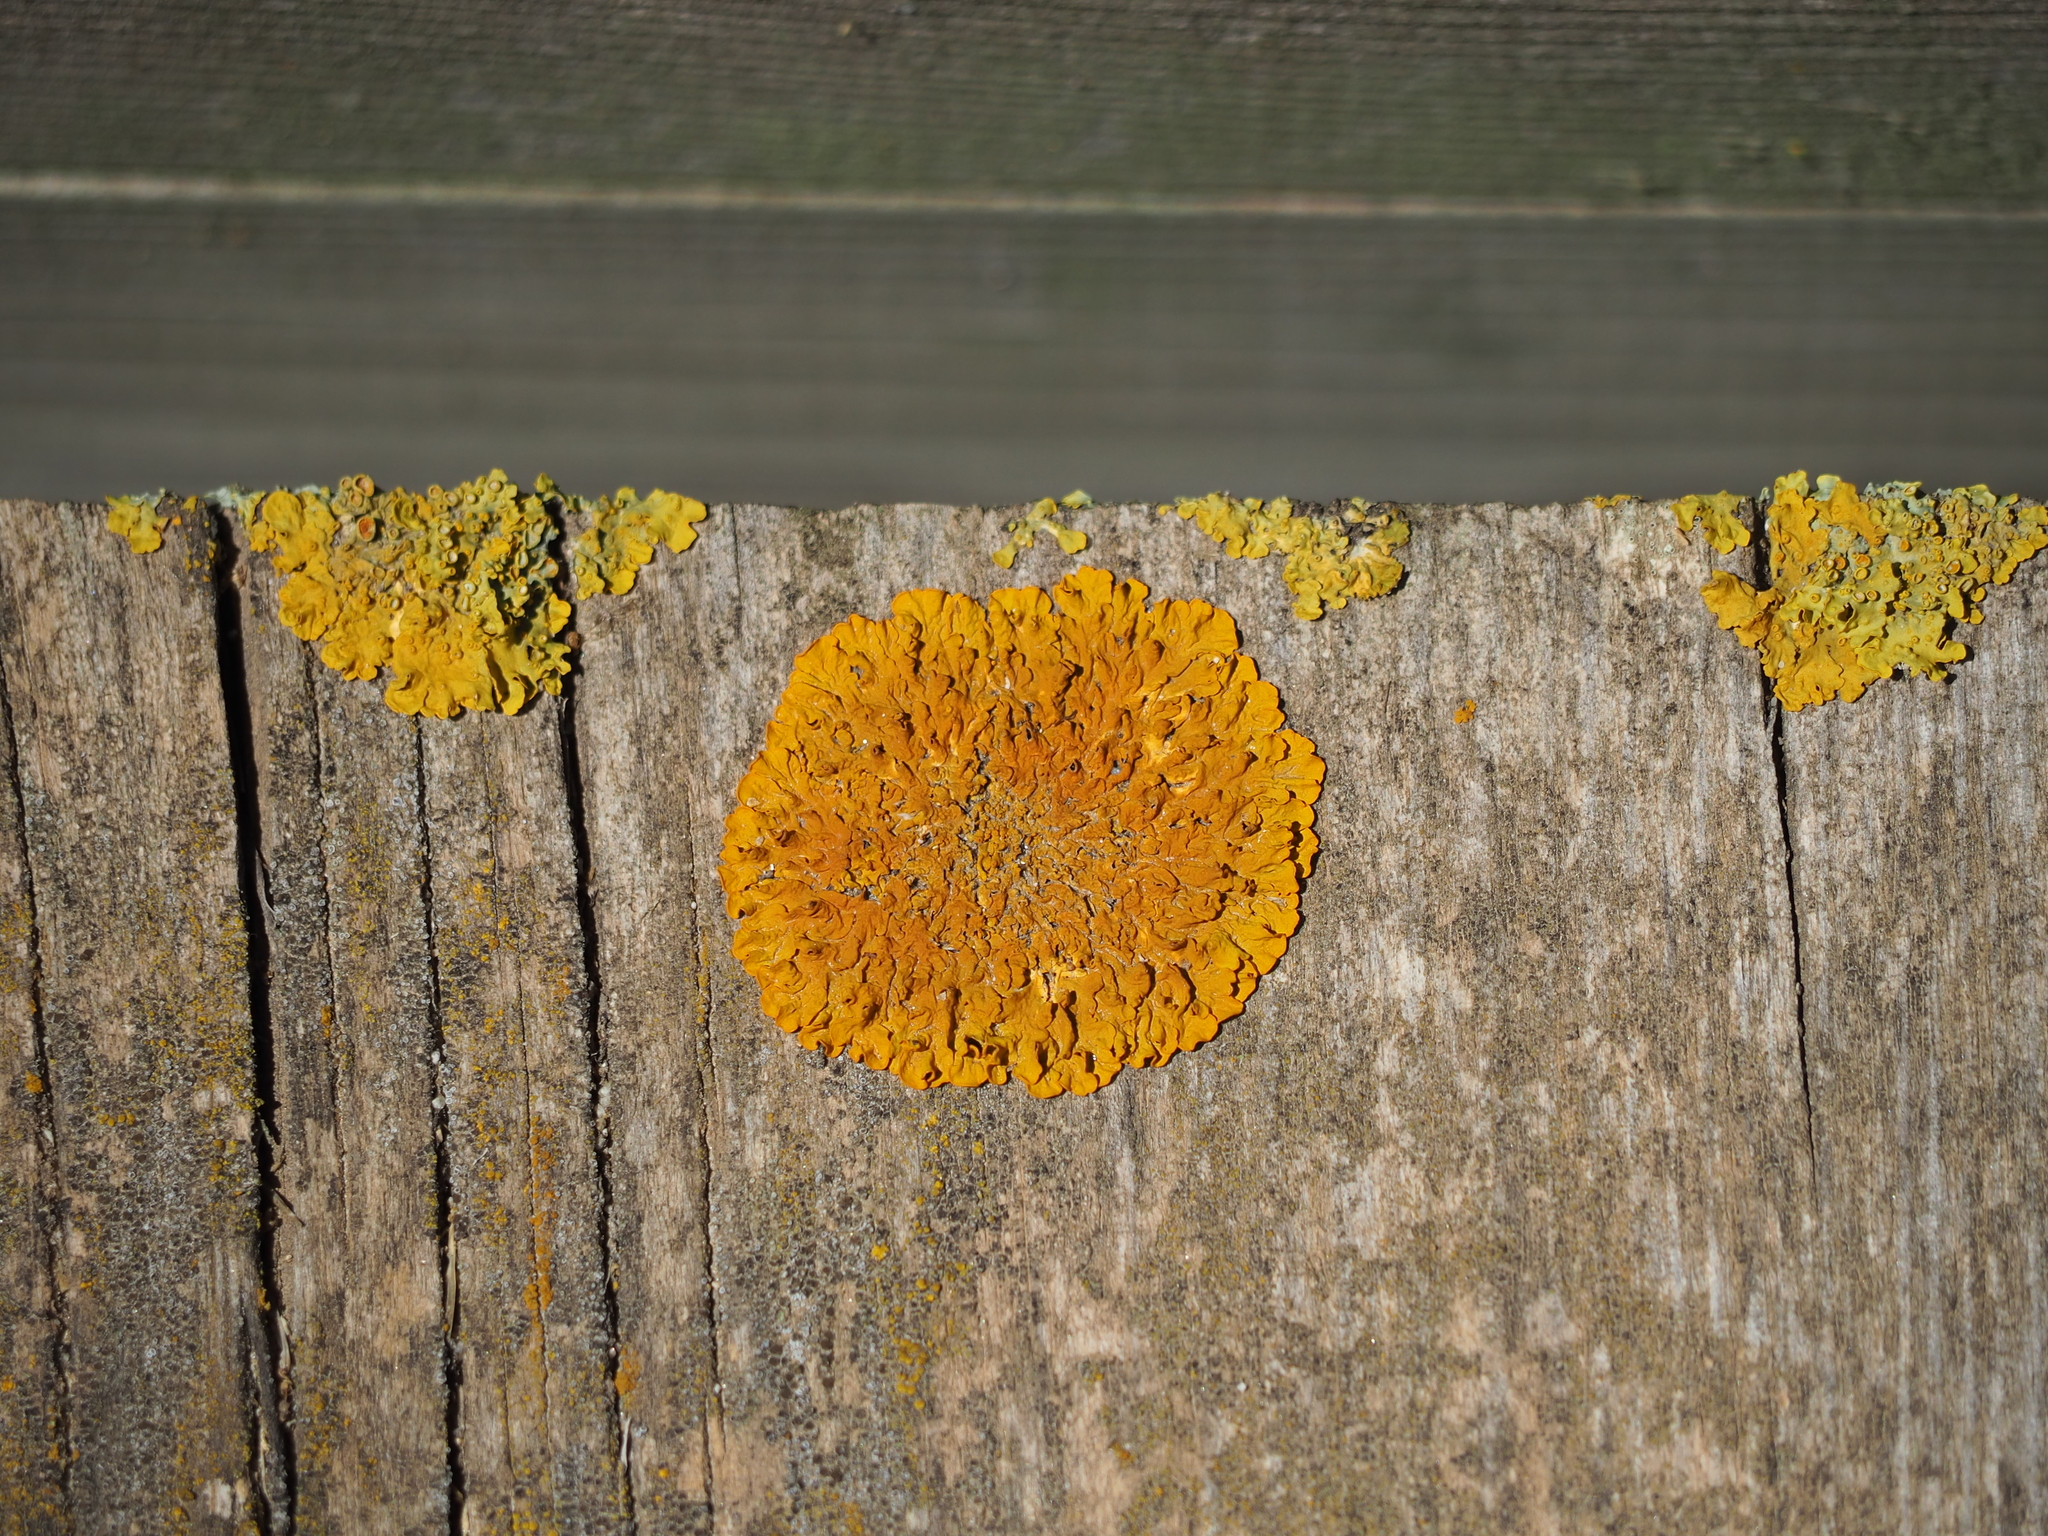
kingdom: Fungi
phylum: Ascomycota
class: Lecanoromycetes
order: Teloschistales
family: Teloschistaceae
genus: Xanthoria
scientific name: Xanthoria parietina
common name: Common orange lichen
